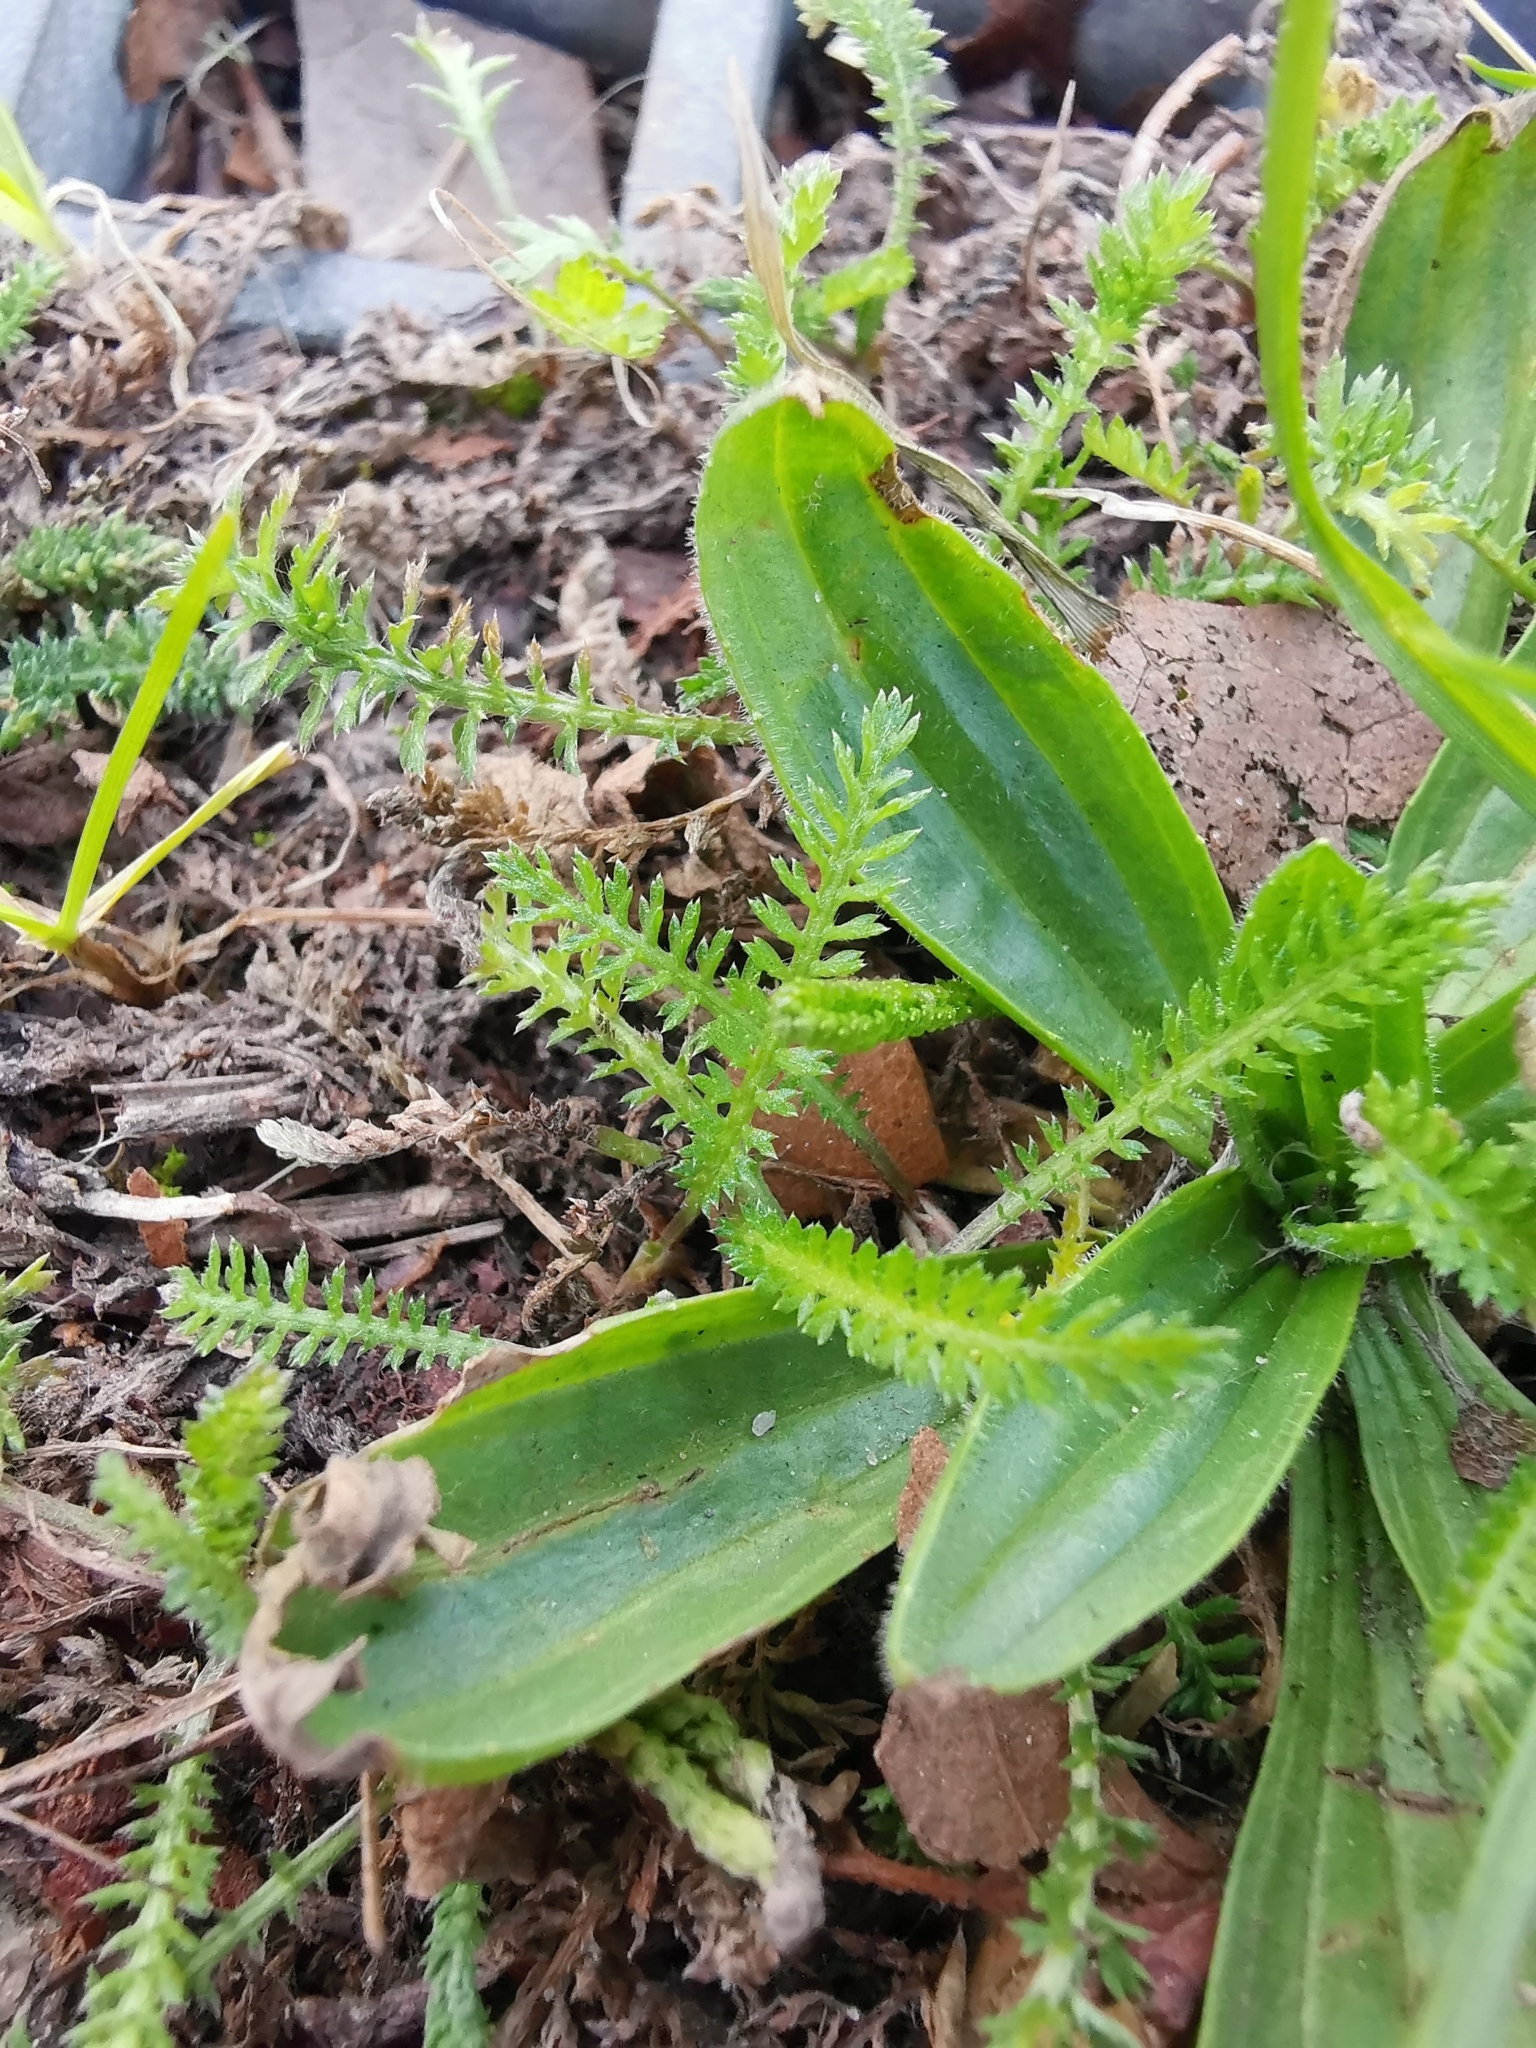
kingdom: Plantae
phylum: Tracheophyta
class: Magnoliopsida
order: Asterales
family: Asteraceae
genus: Achillea
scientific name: Achillea millefolium
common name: Yarrow
